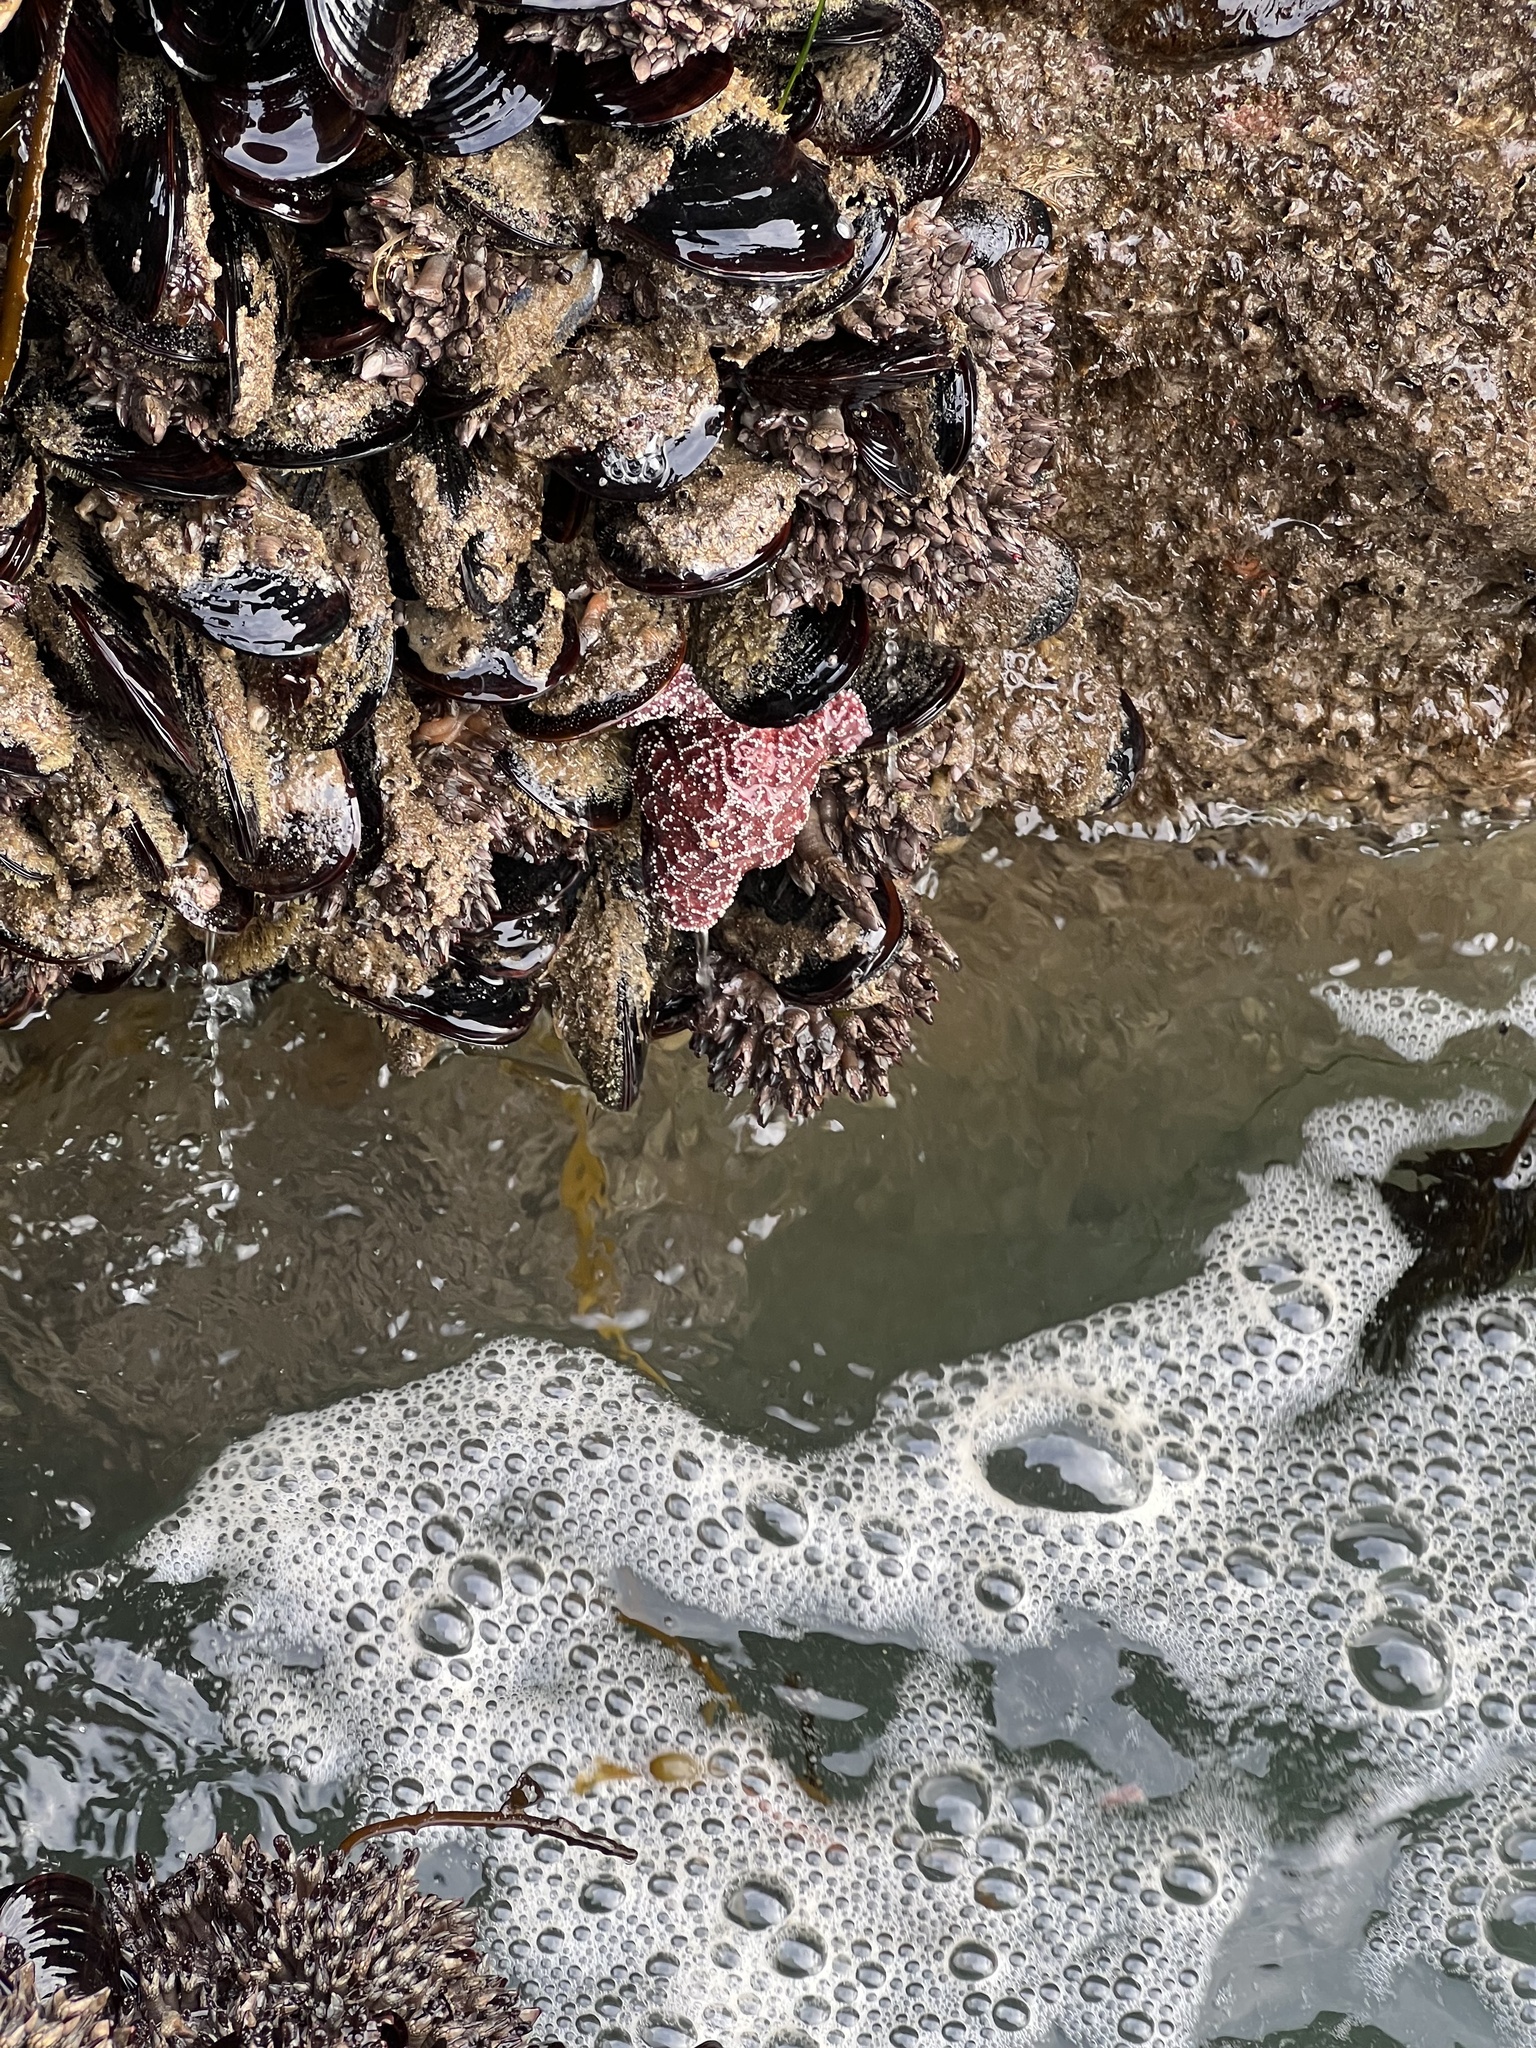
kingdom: Animalia
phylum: Echinodermata
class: Asteroidea
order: Forcipulatida
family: Asteriidae
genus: Pisaster
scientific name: Pisaster ochraceus
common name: Ochre stars
